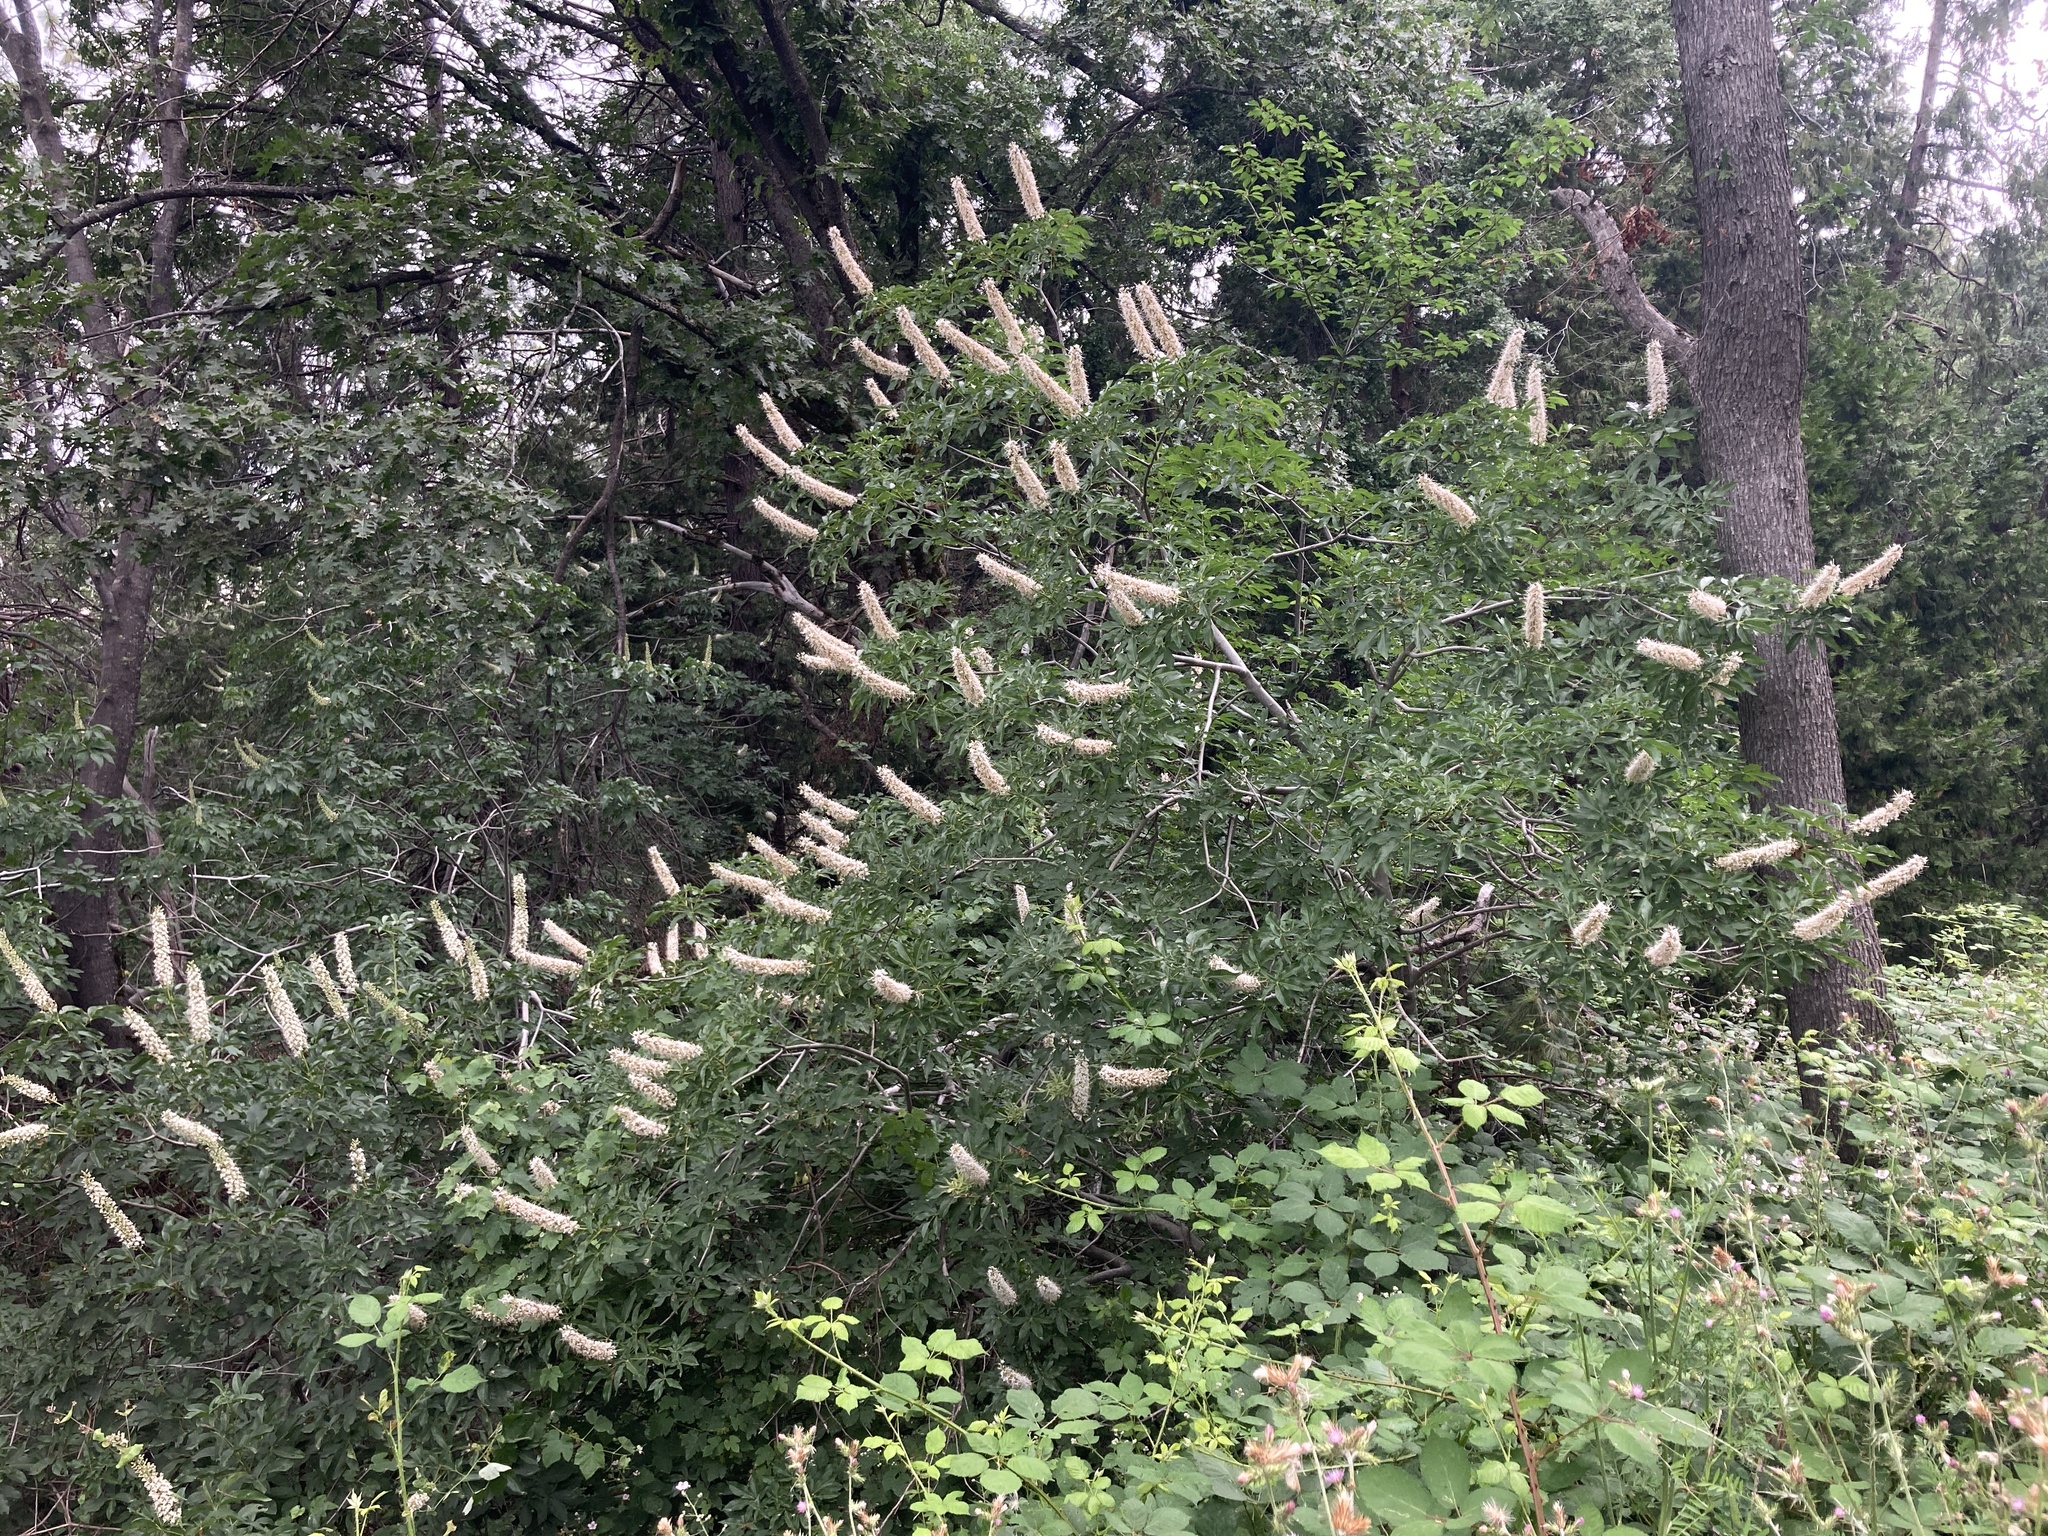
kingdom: Plantae
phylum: Tracheophyta
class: Magnoliopsida
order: Sapindales
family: Sapindaceae
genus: Aesculus
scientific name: Aesculus californica
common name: California buckeye
